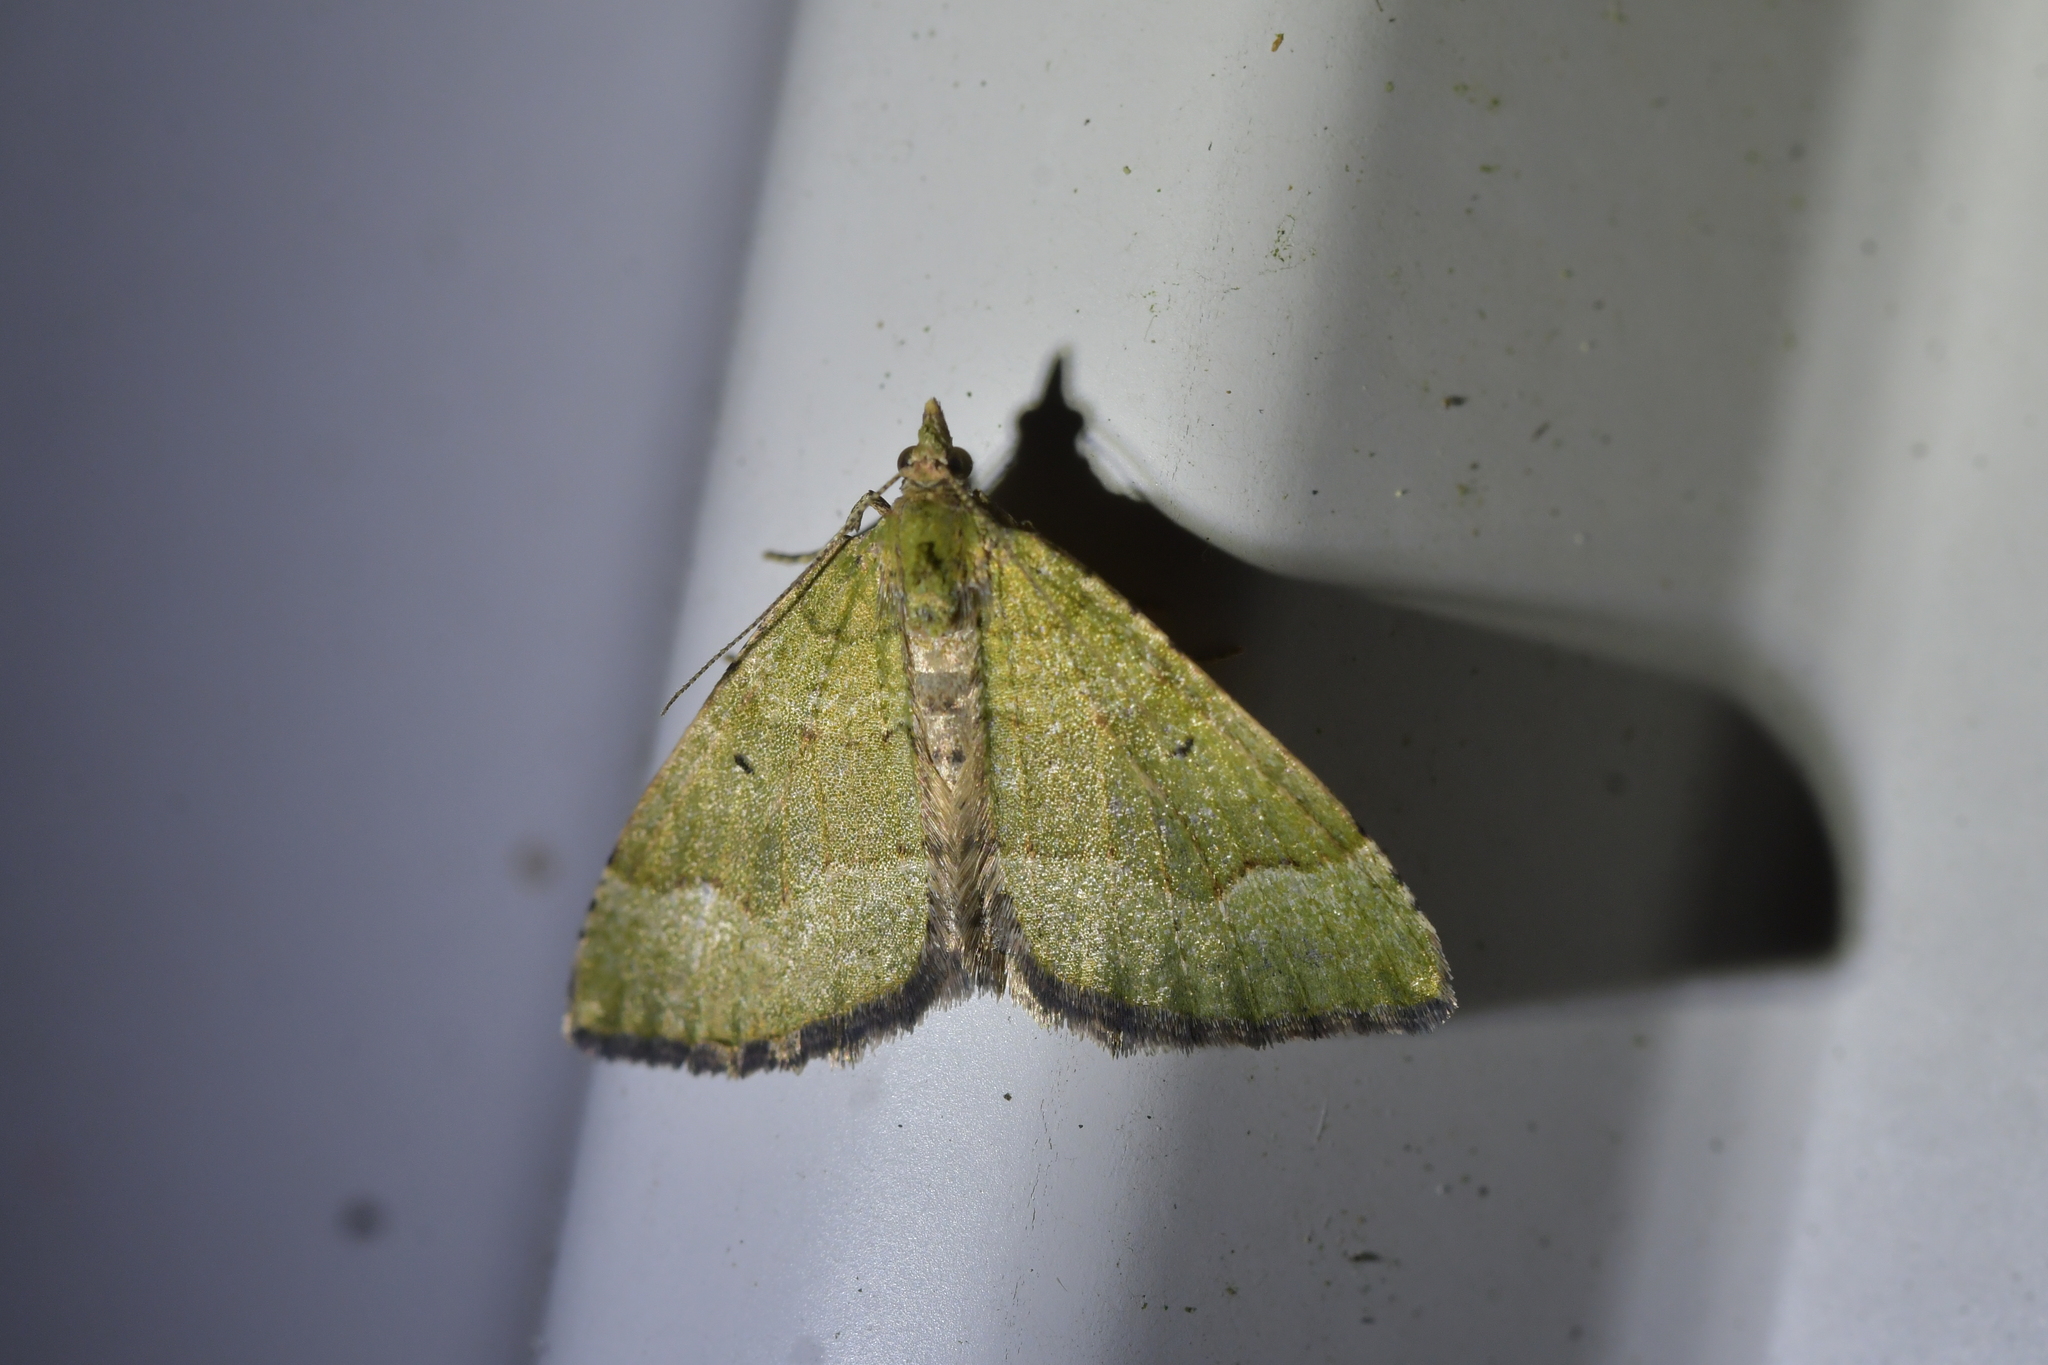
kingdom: Animalia
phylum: Arthropoda
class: Insecta
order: Lepidoptera
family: Geometridae
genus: Epyaxa
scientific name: Epyaxa rosearia
